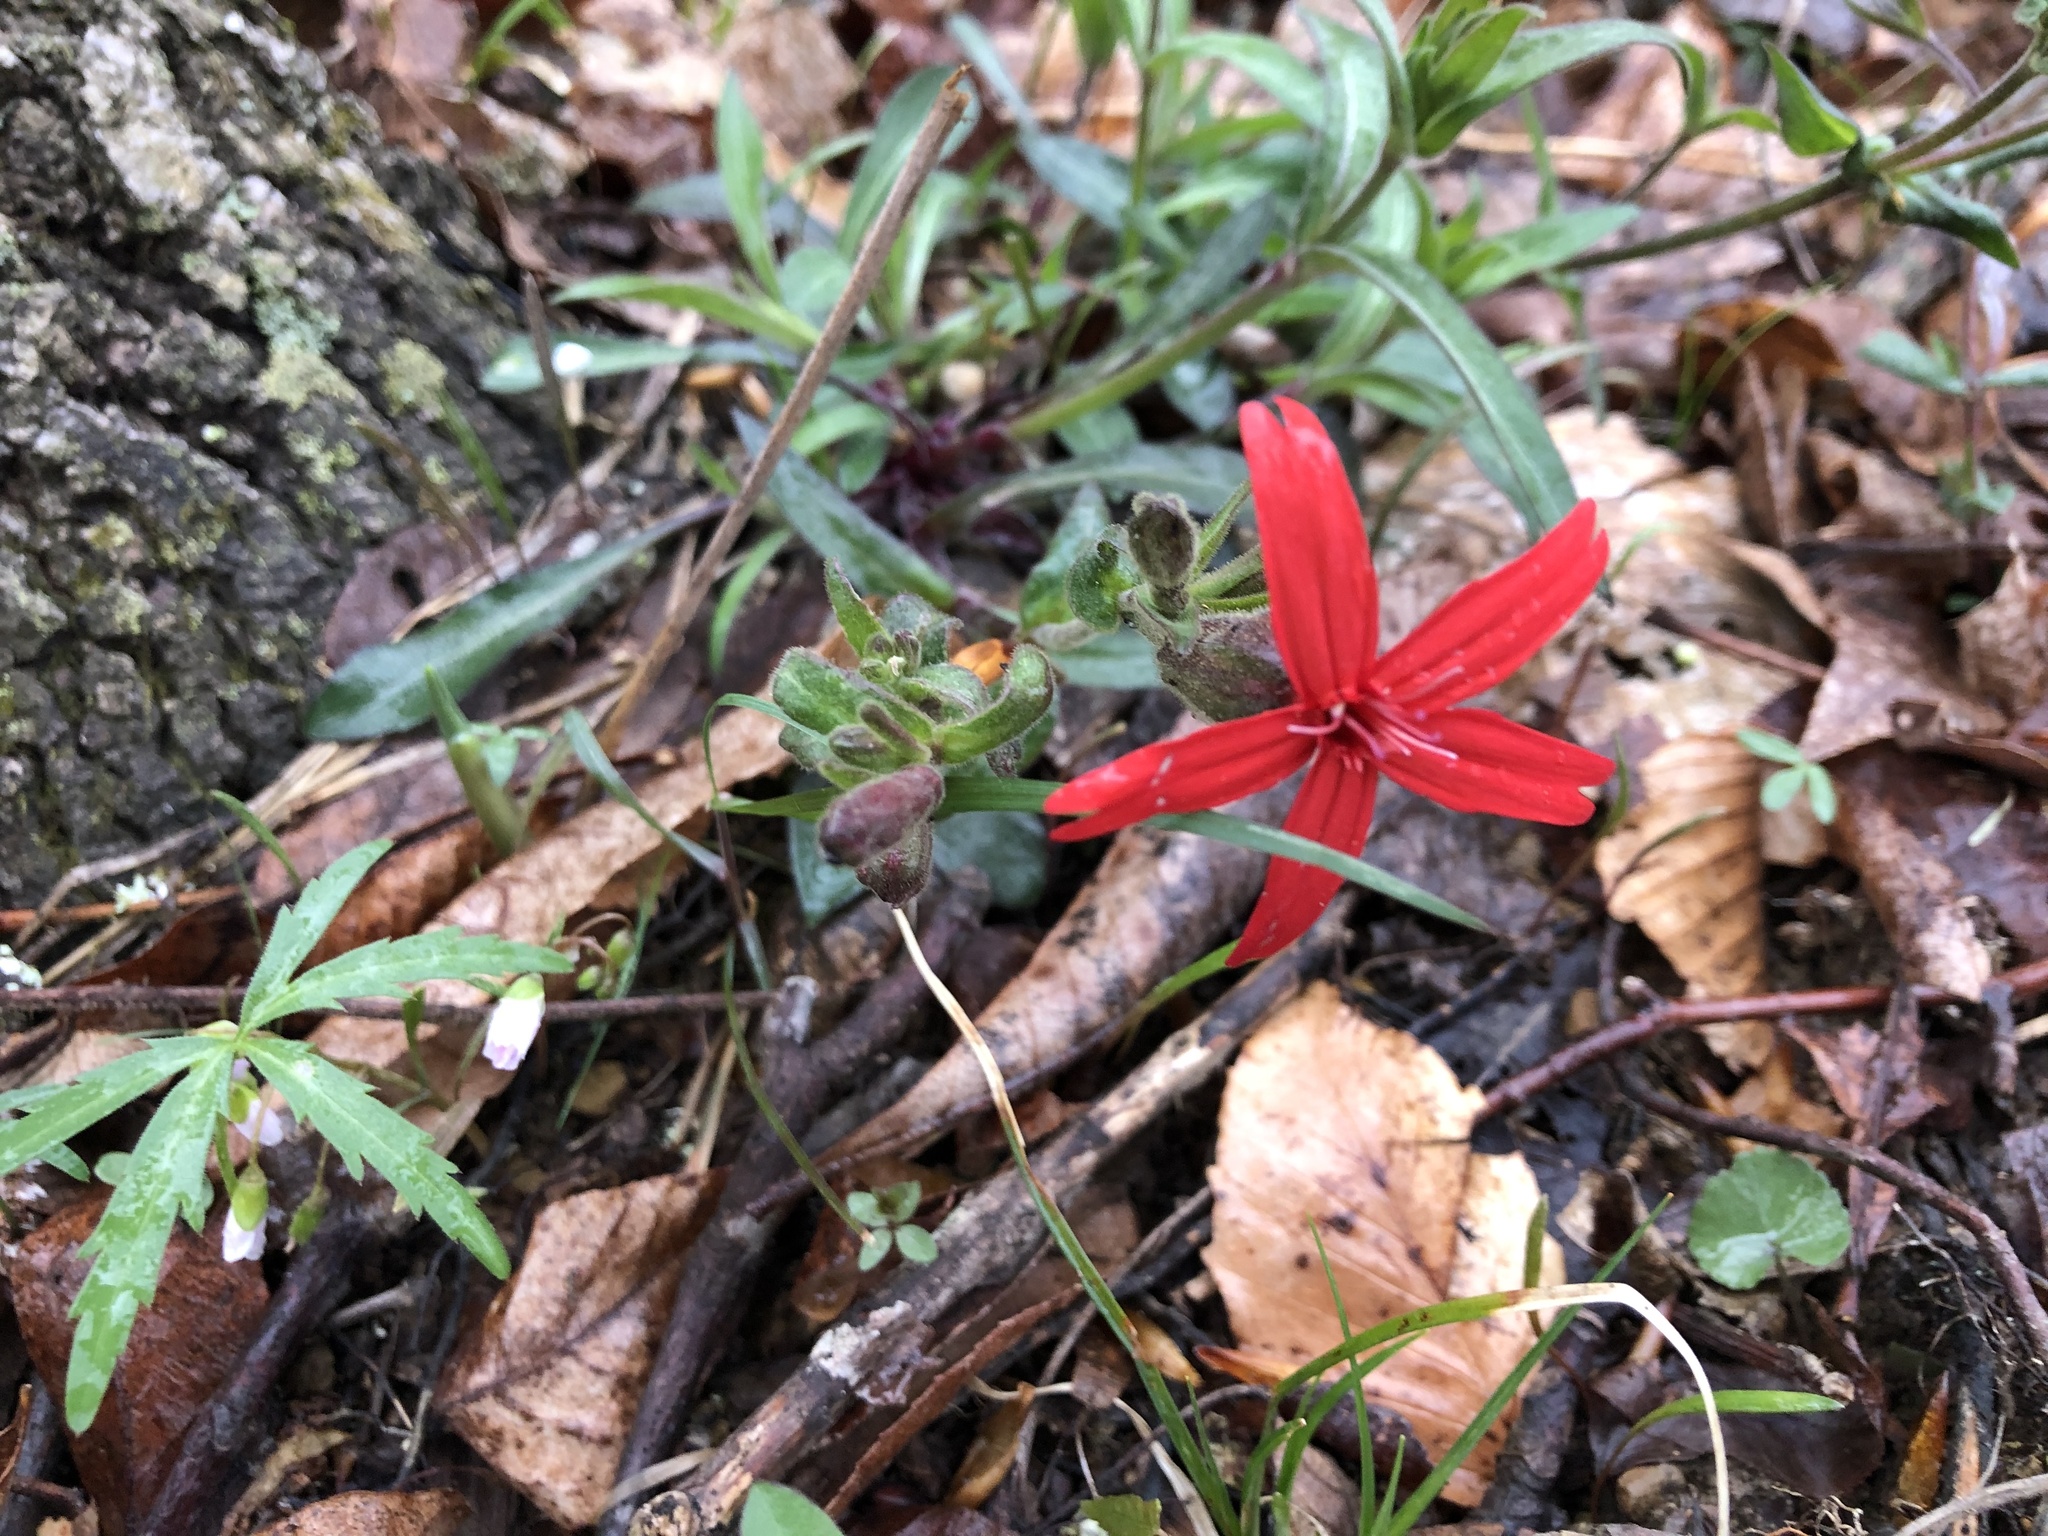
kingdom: Plantae
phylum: Tracheophyta
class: Magnoliopsida
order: Caryophyllales
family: Caryophyllaceae
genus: Silene
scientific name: Silene virginica
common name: Fire-pink
